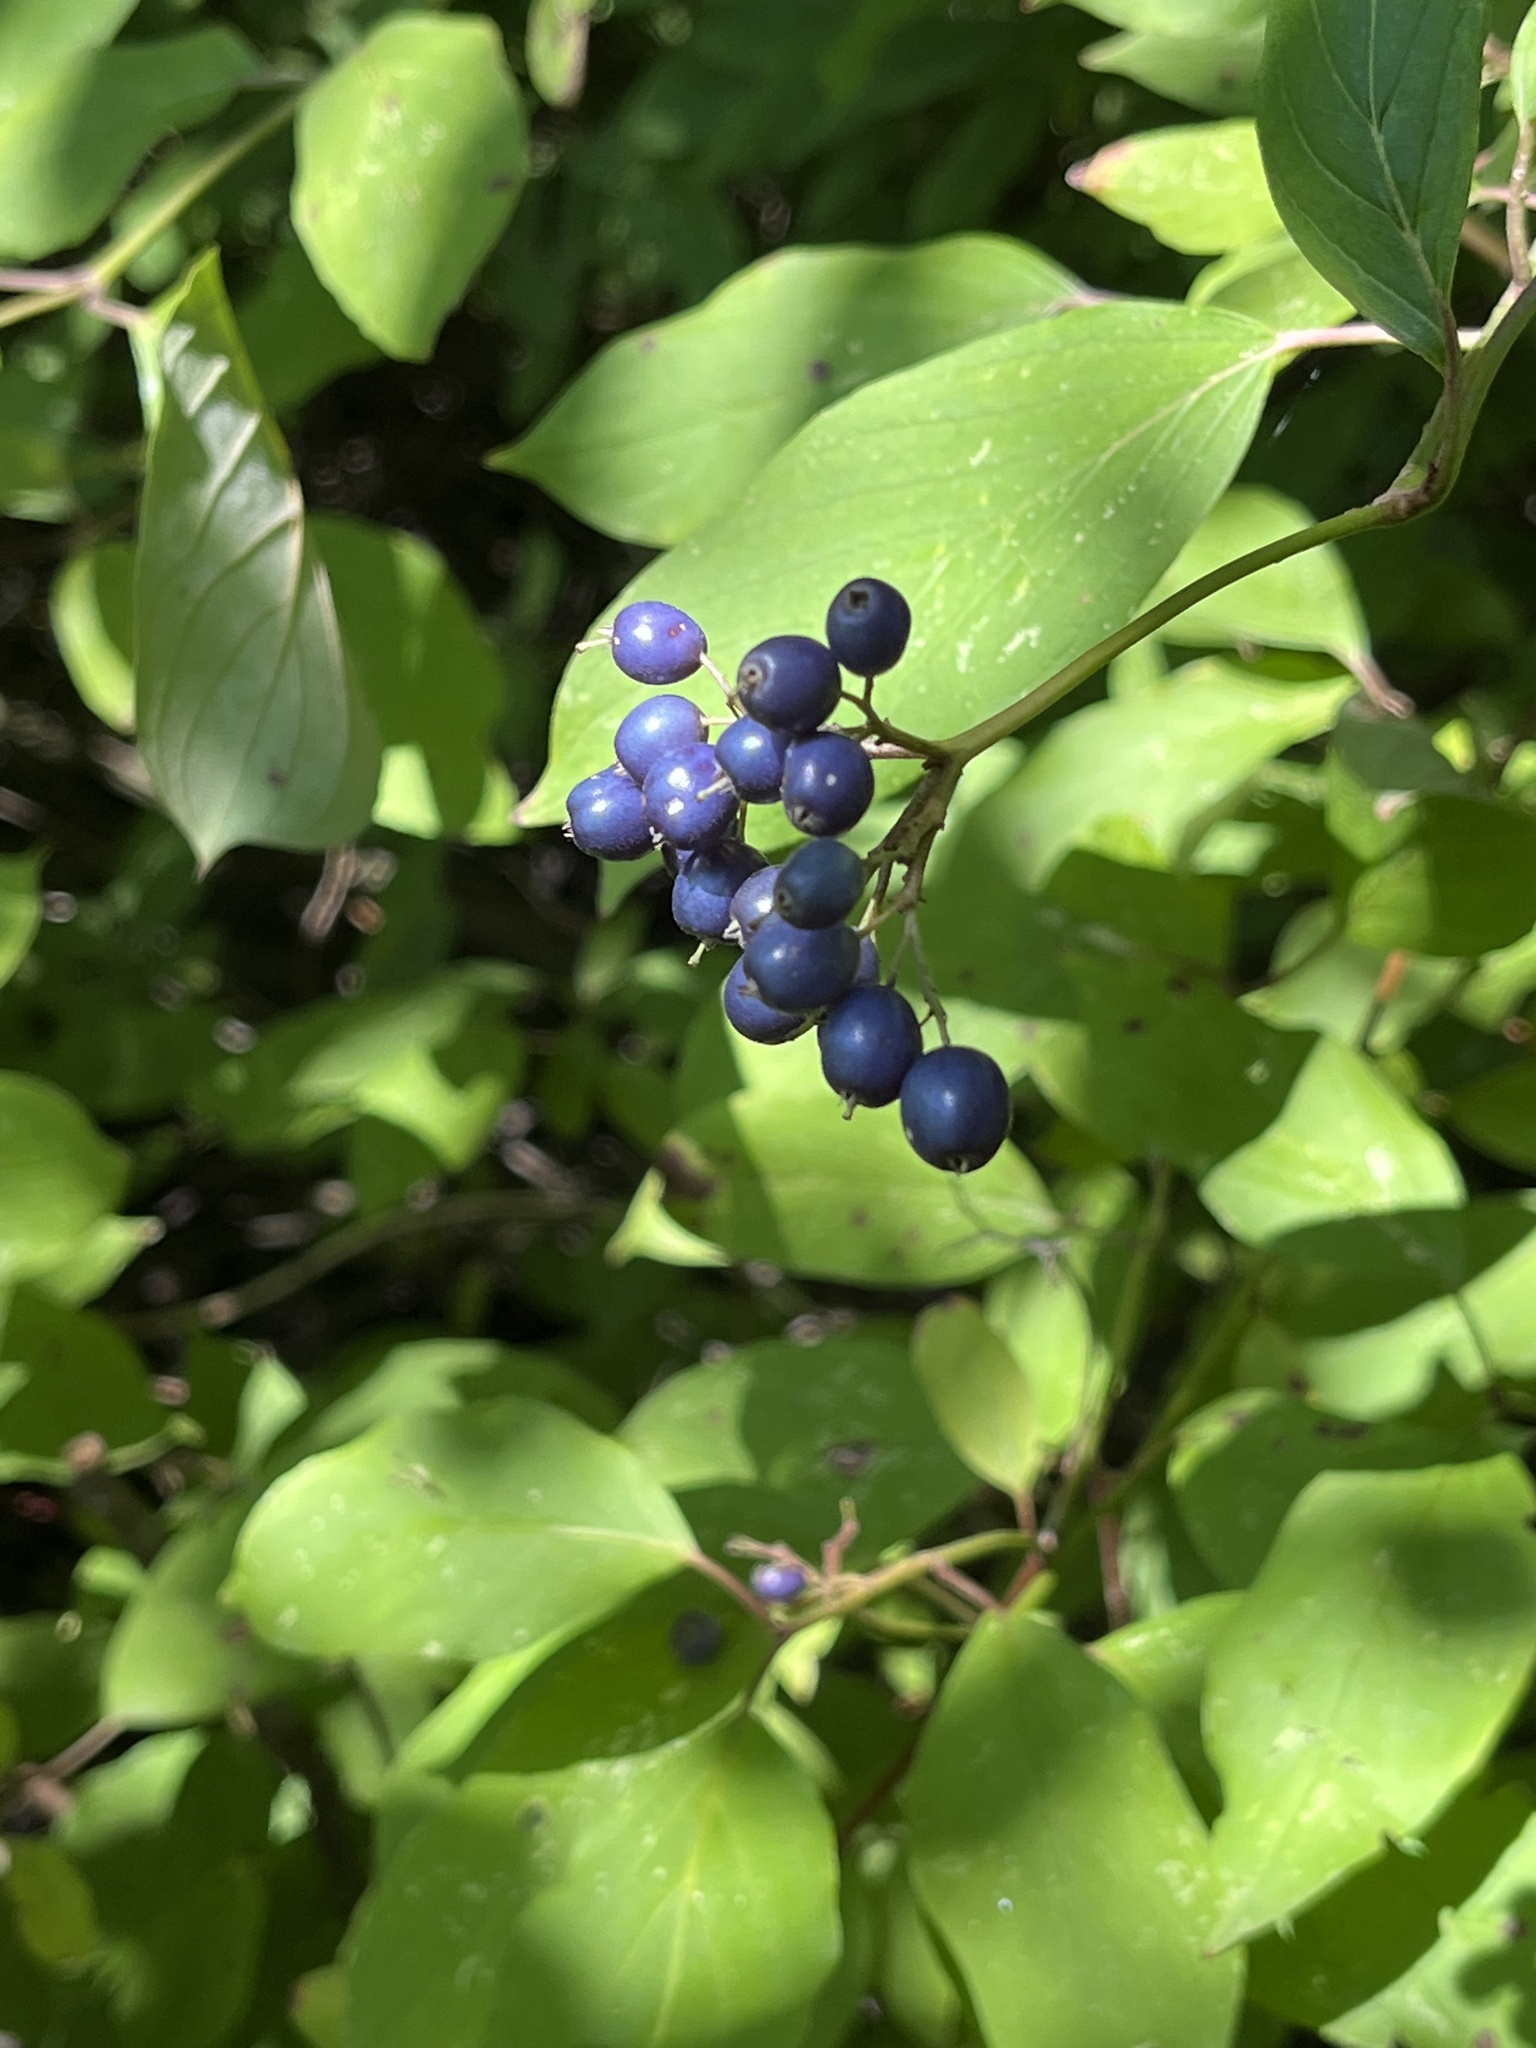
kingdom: Plantae
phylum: Tracheophyta
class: Magnoliopsida
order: Cornales
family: Cornaceae
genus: Cornus
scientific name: Cornus amomum
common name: Silky dogwood
